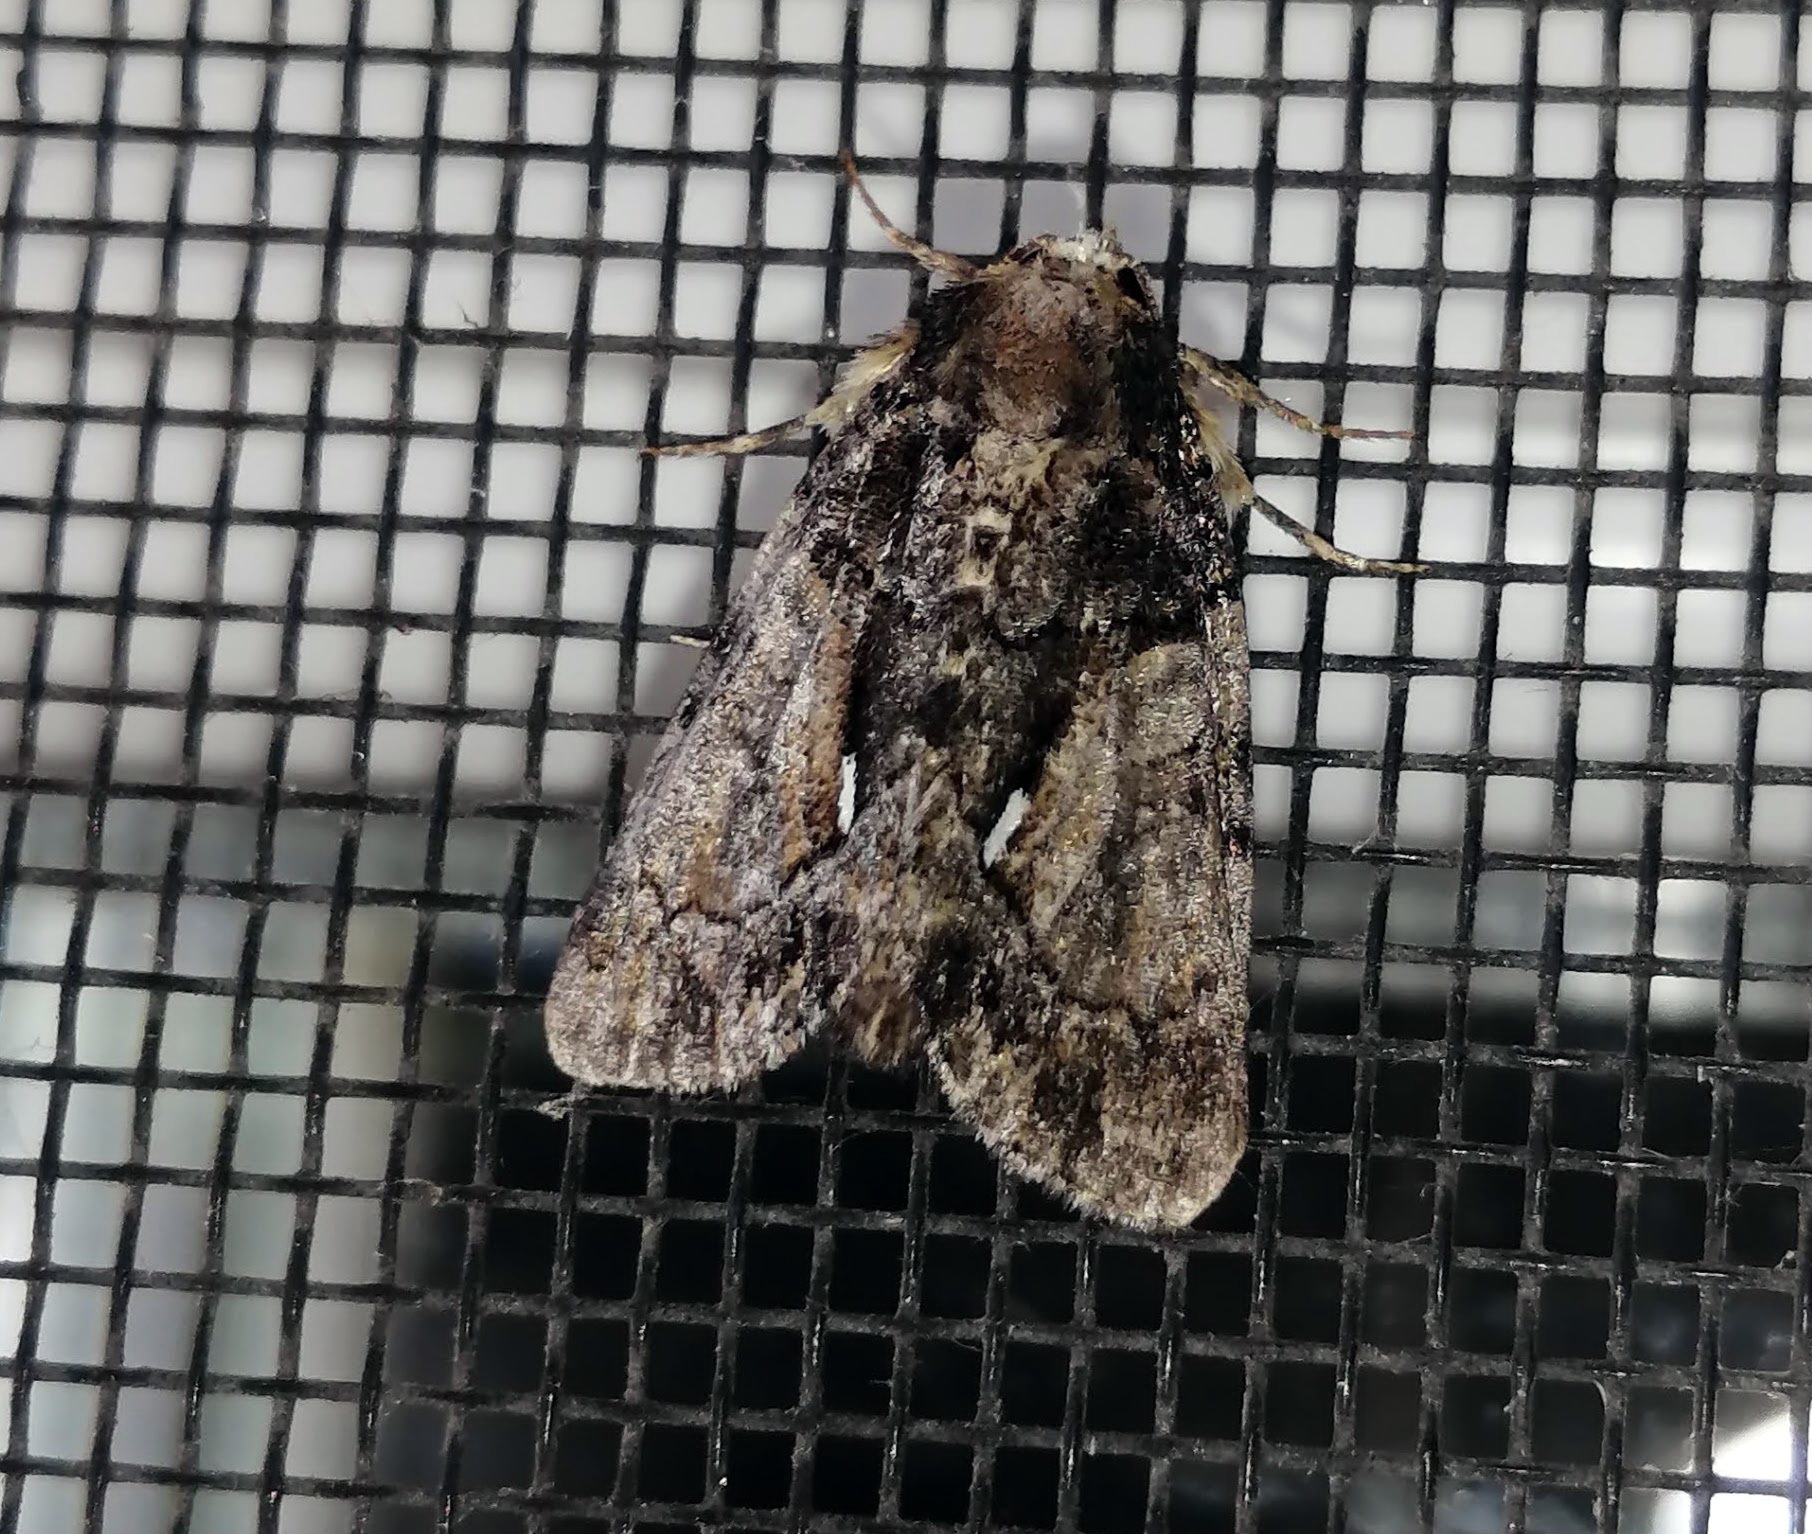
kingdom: Animalia
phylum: Arthropoda
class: Insecta
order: Lepidoptera
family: Noctuidae
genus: Chytonix
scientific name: Chytonix palliatricula
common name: Cloaked marvel
